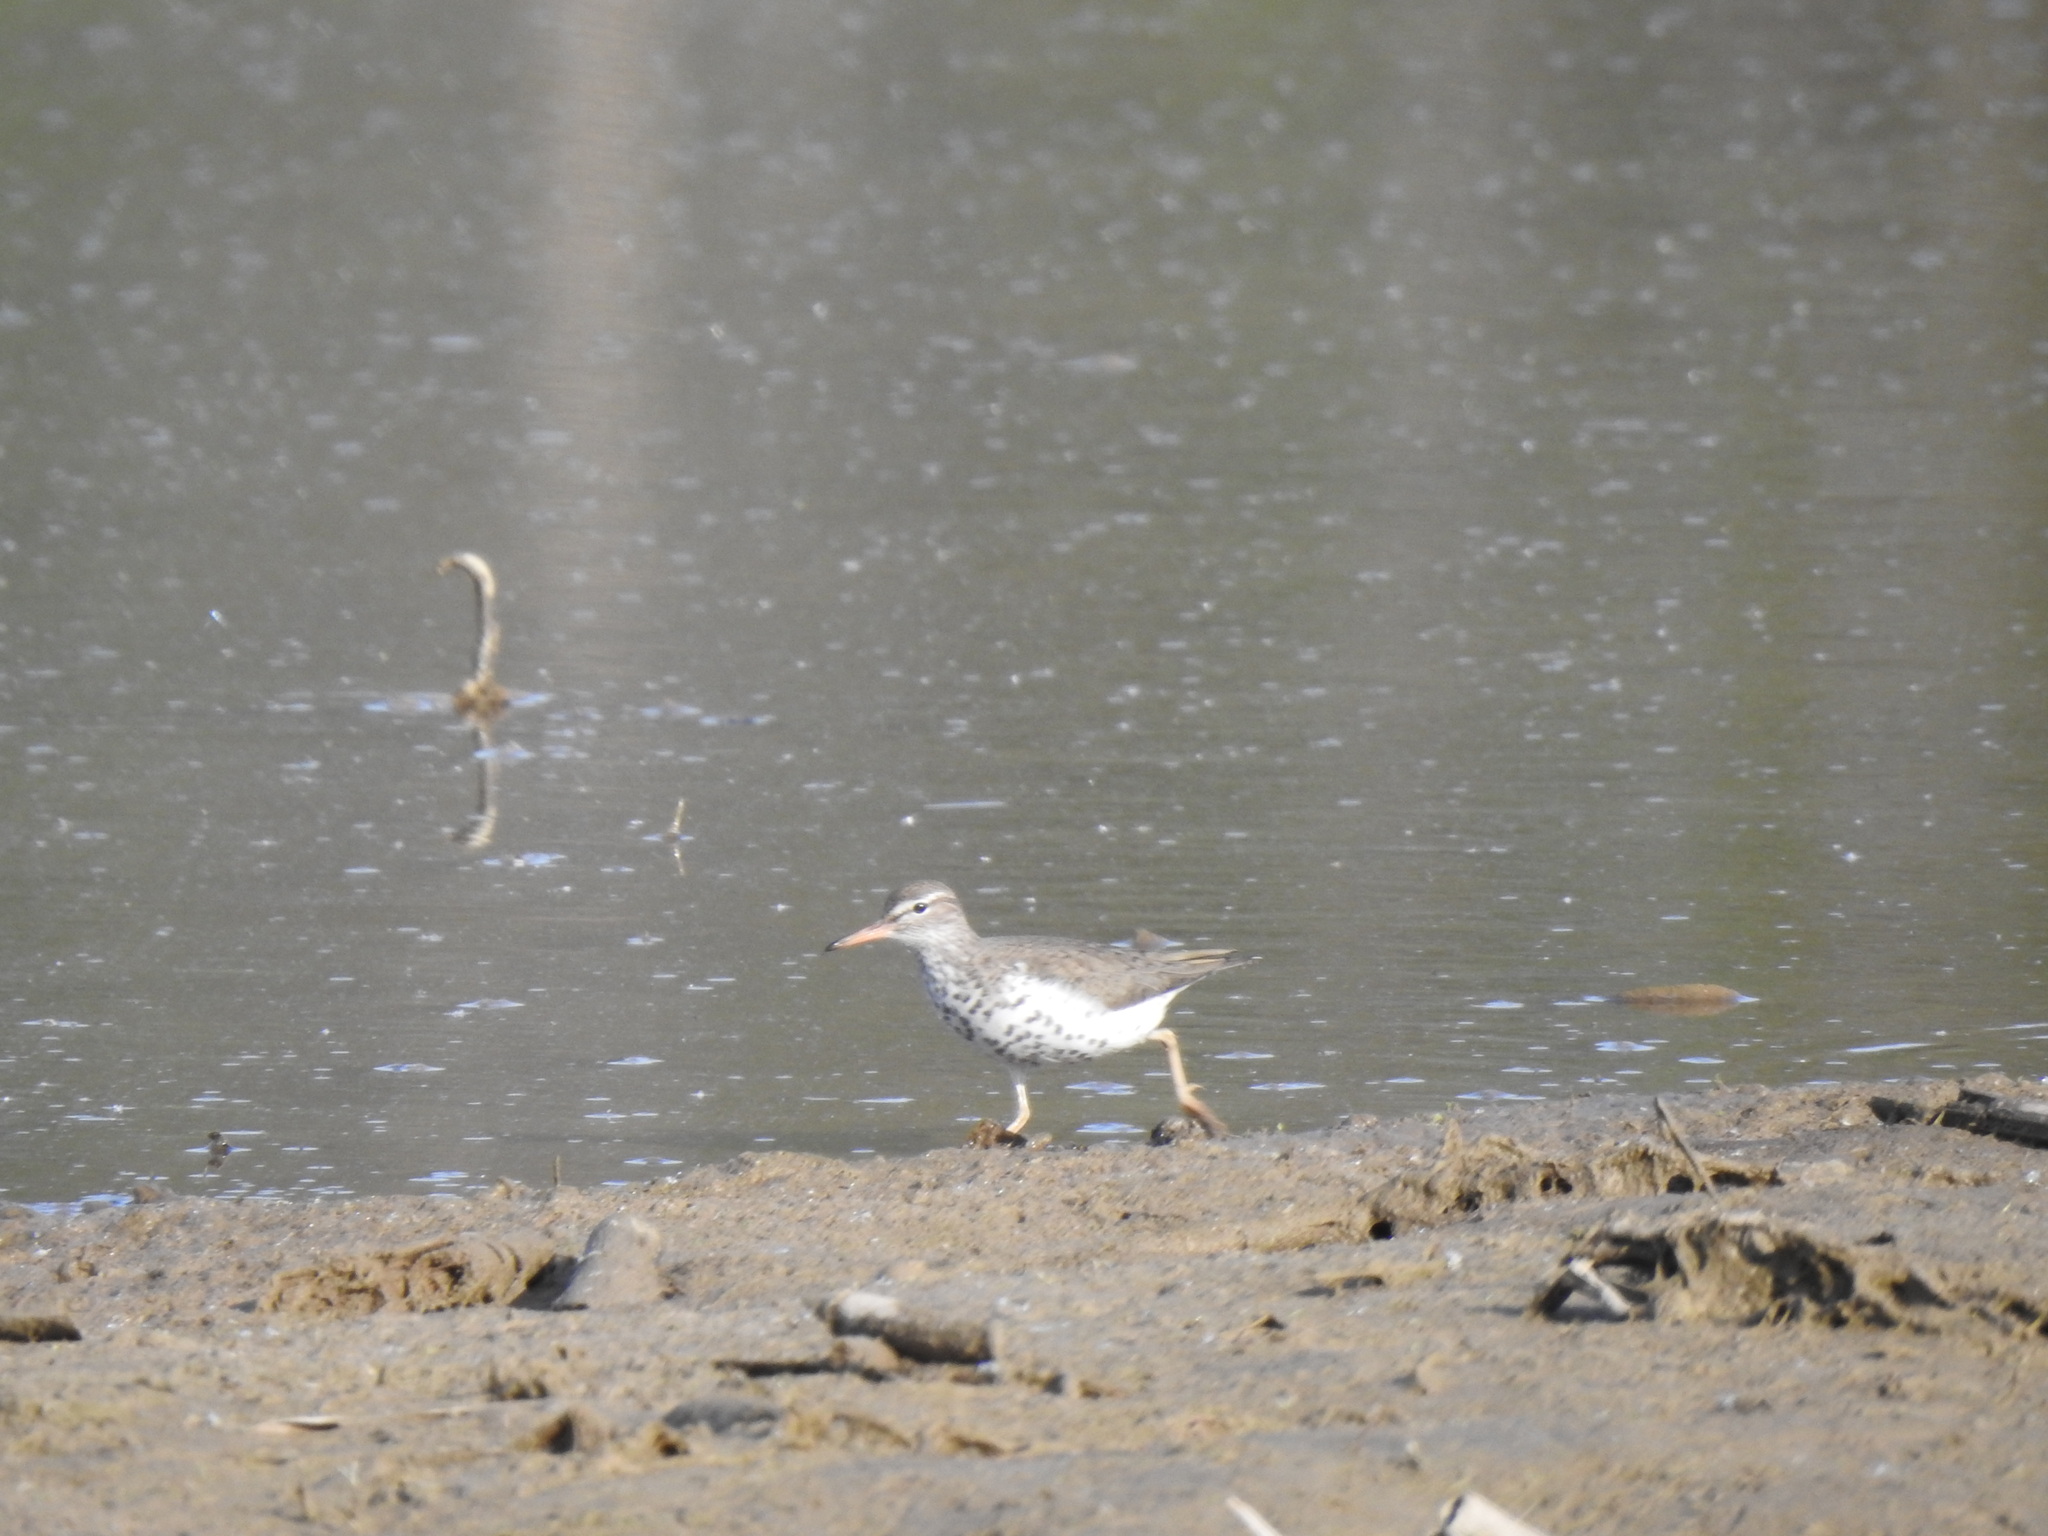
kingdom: Animalia
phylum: Chordata
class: Aves
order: Charadriiformes
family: Scolopacidae
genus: Actitis
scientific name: Actitis macularius
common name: Spotted sandpiper
